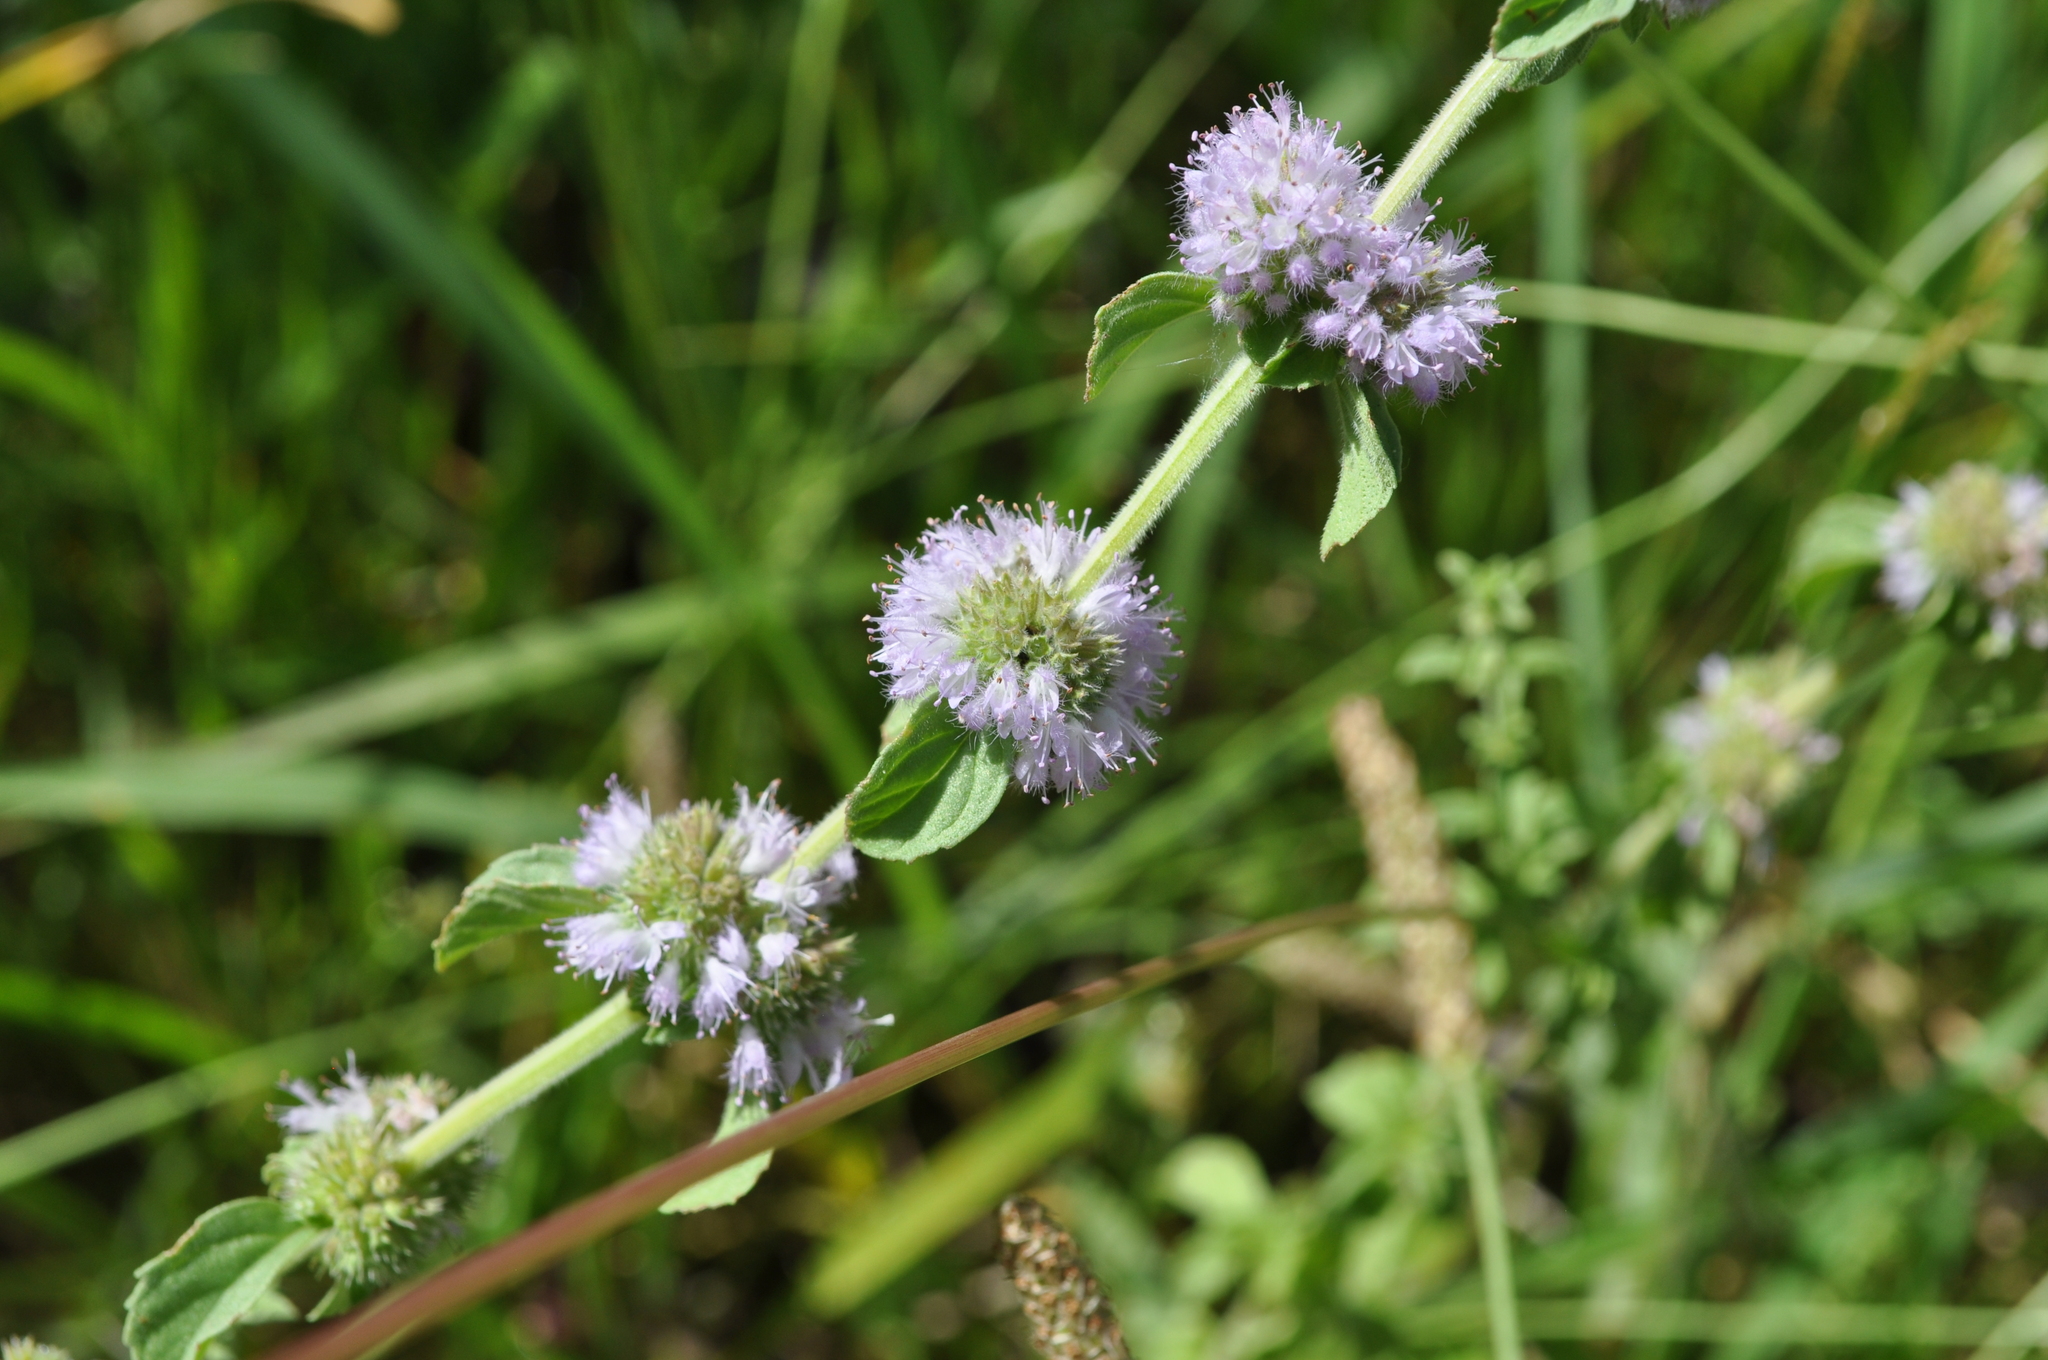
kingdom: Plantae
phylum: Tracheophyta
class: Magnoliopsida
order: Lamiales
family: Lamiaceae
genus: Mentha
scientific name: Mentha pulegium
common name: Pennyroyal
